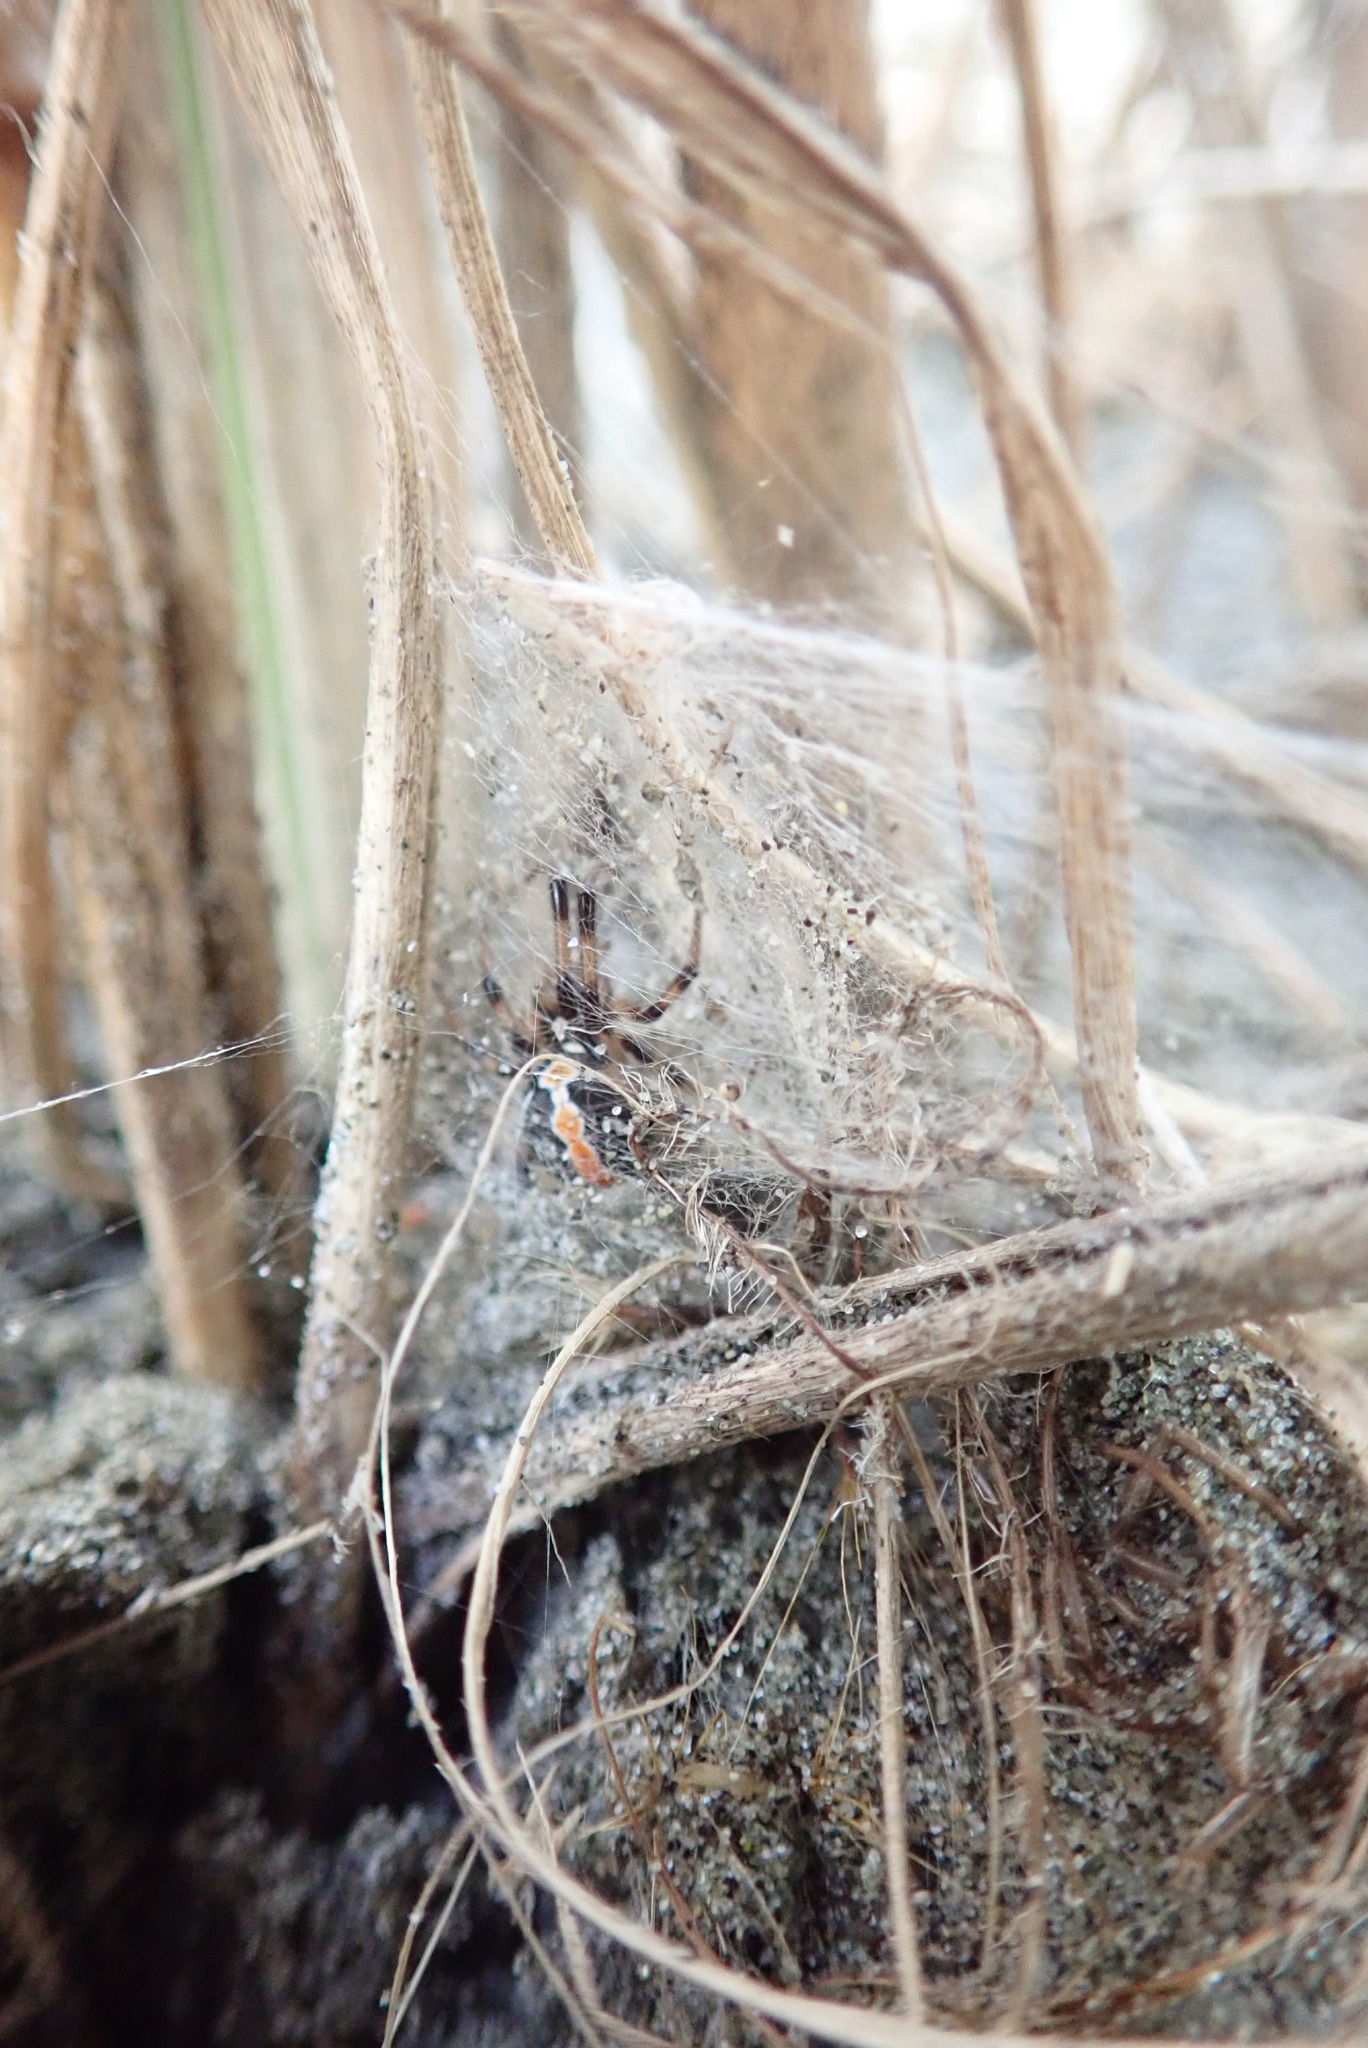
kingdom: Animalia
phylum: Arthropoda
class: Arachnida
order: Araneae
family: Theridiidae
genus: Latrodectus
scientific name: Latrodectus katipo
